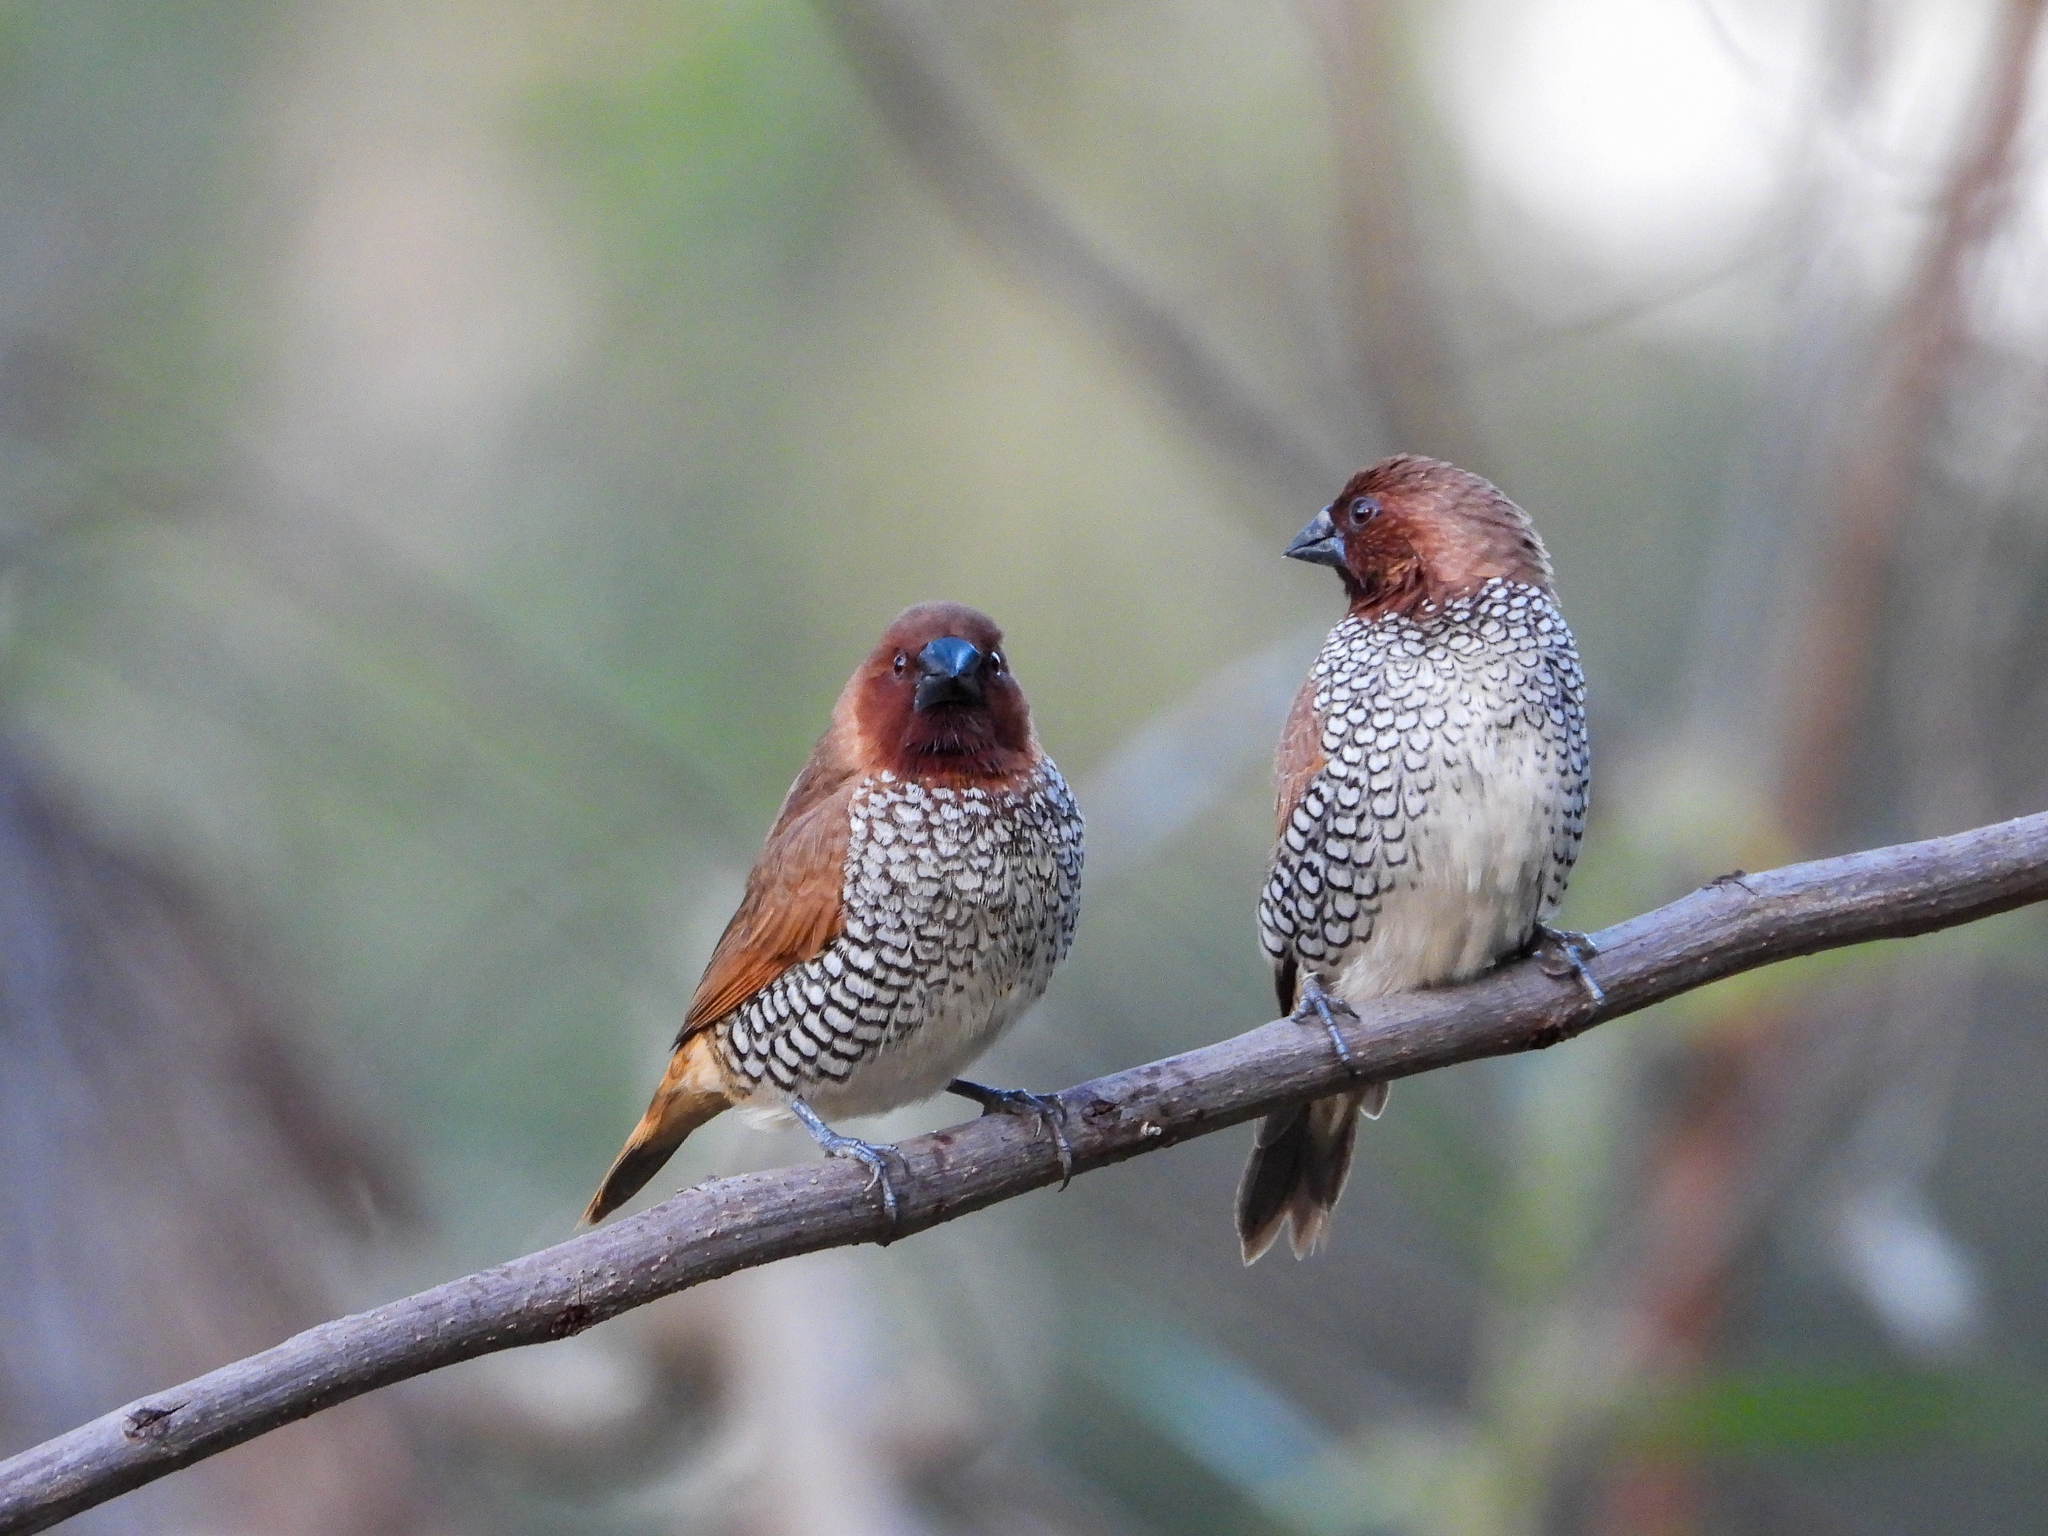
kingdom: Animalia
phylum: Chordata
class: Aves
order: Passeriformes
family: Estrildidae
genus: Lonchura
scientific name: Lonchura punctulata
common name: Scaly-breasted munia
